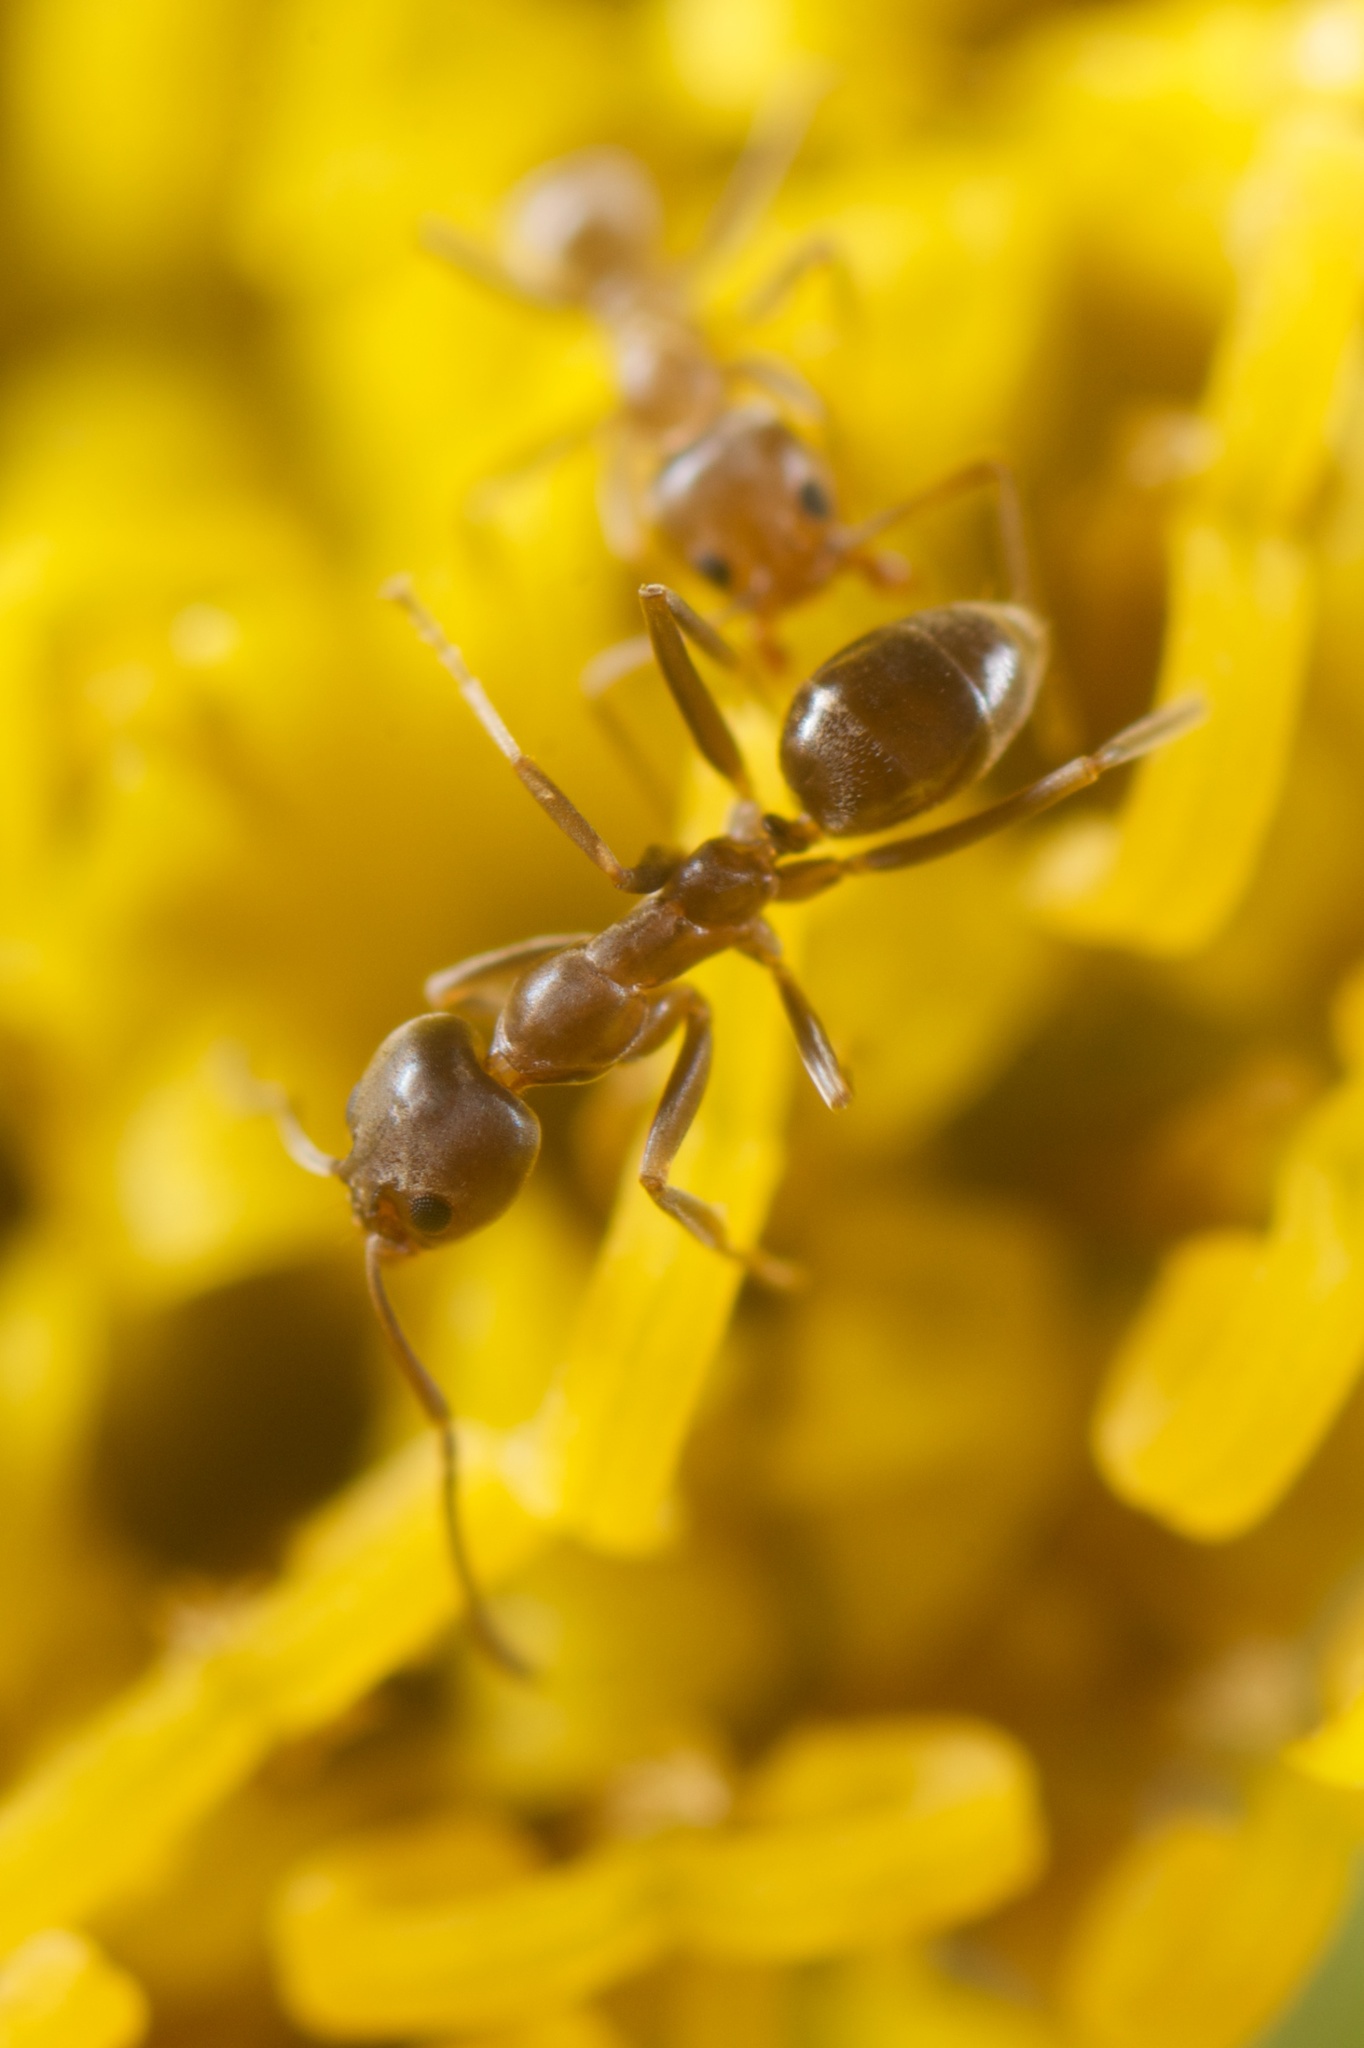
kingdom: Animalia
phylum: Arthropoda
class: Insecta
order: Hymenoptera
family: Formicidae
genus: Linepithema
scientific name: Linepithema humile
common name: Argentine ant
